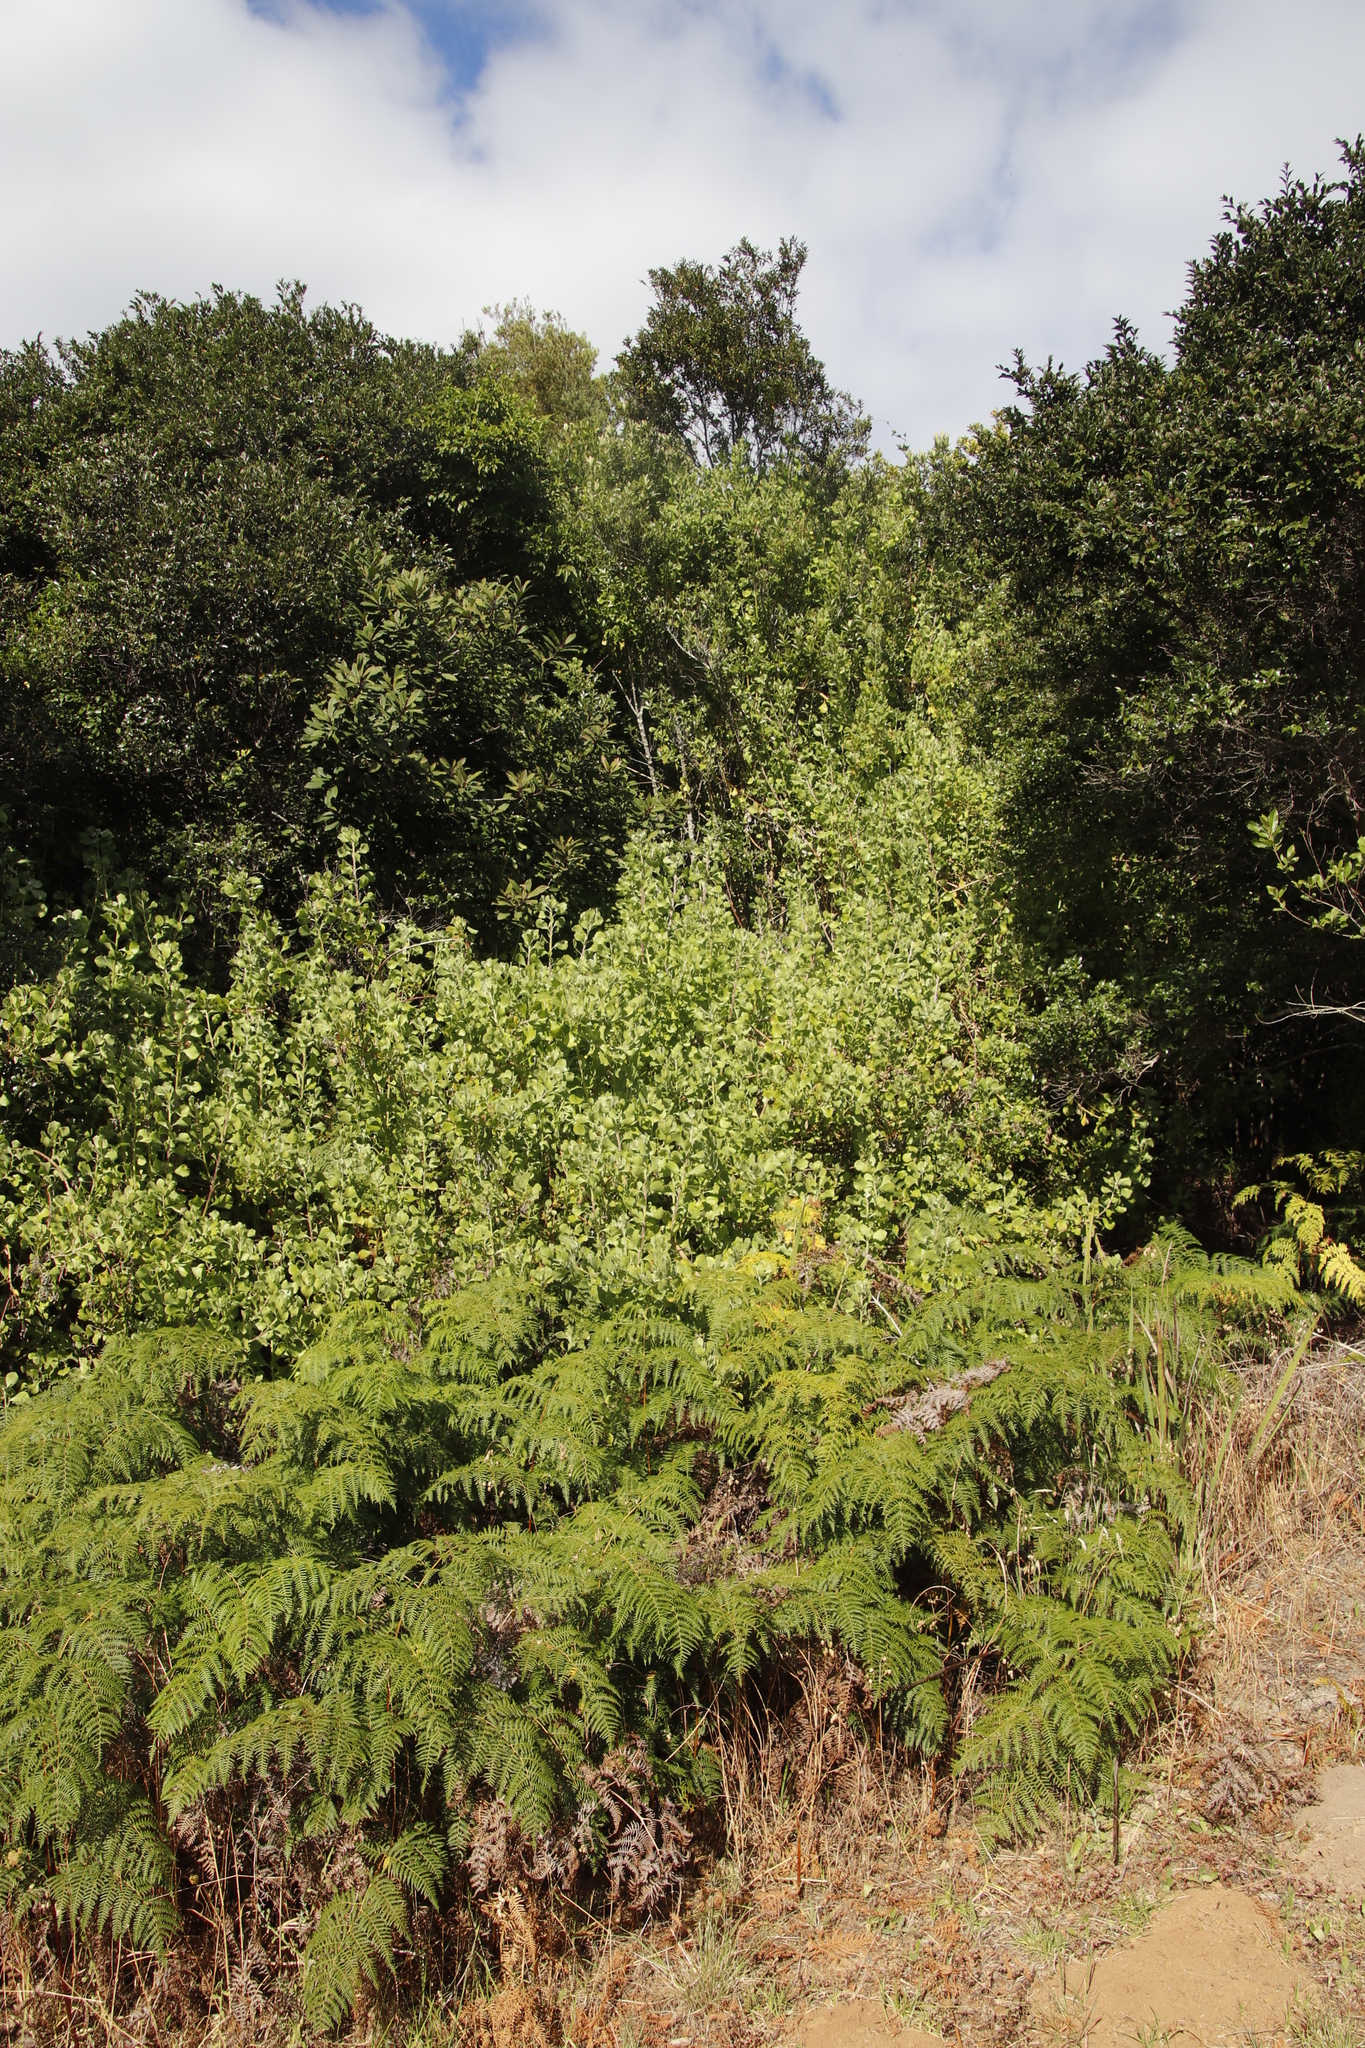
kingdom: Plantae
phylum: Tracheophyta
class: Magnoliopsida
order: Asterales
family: Asteraceae
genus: Osteospermum
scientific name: Osteospermum moniliferum
